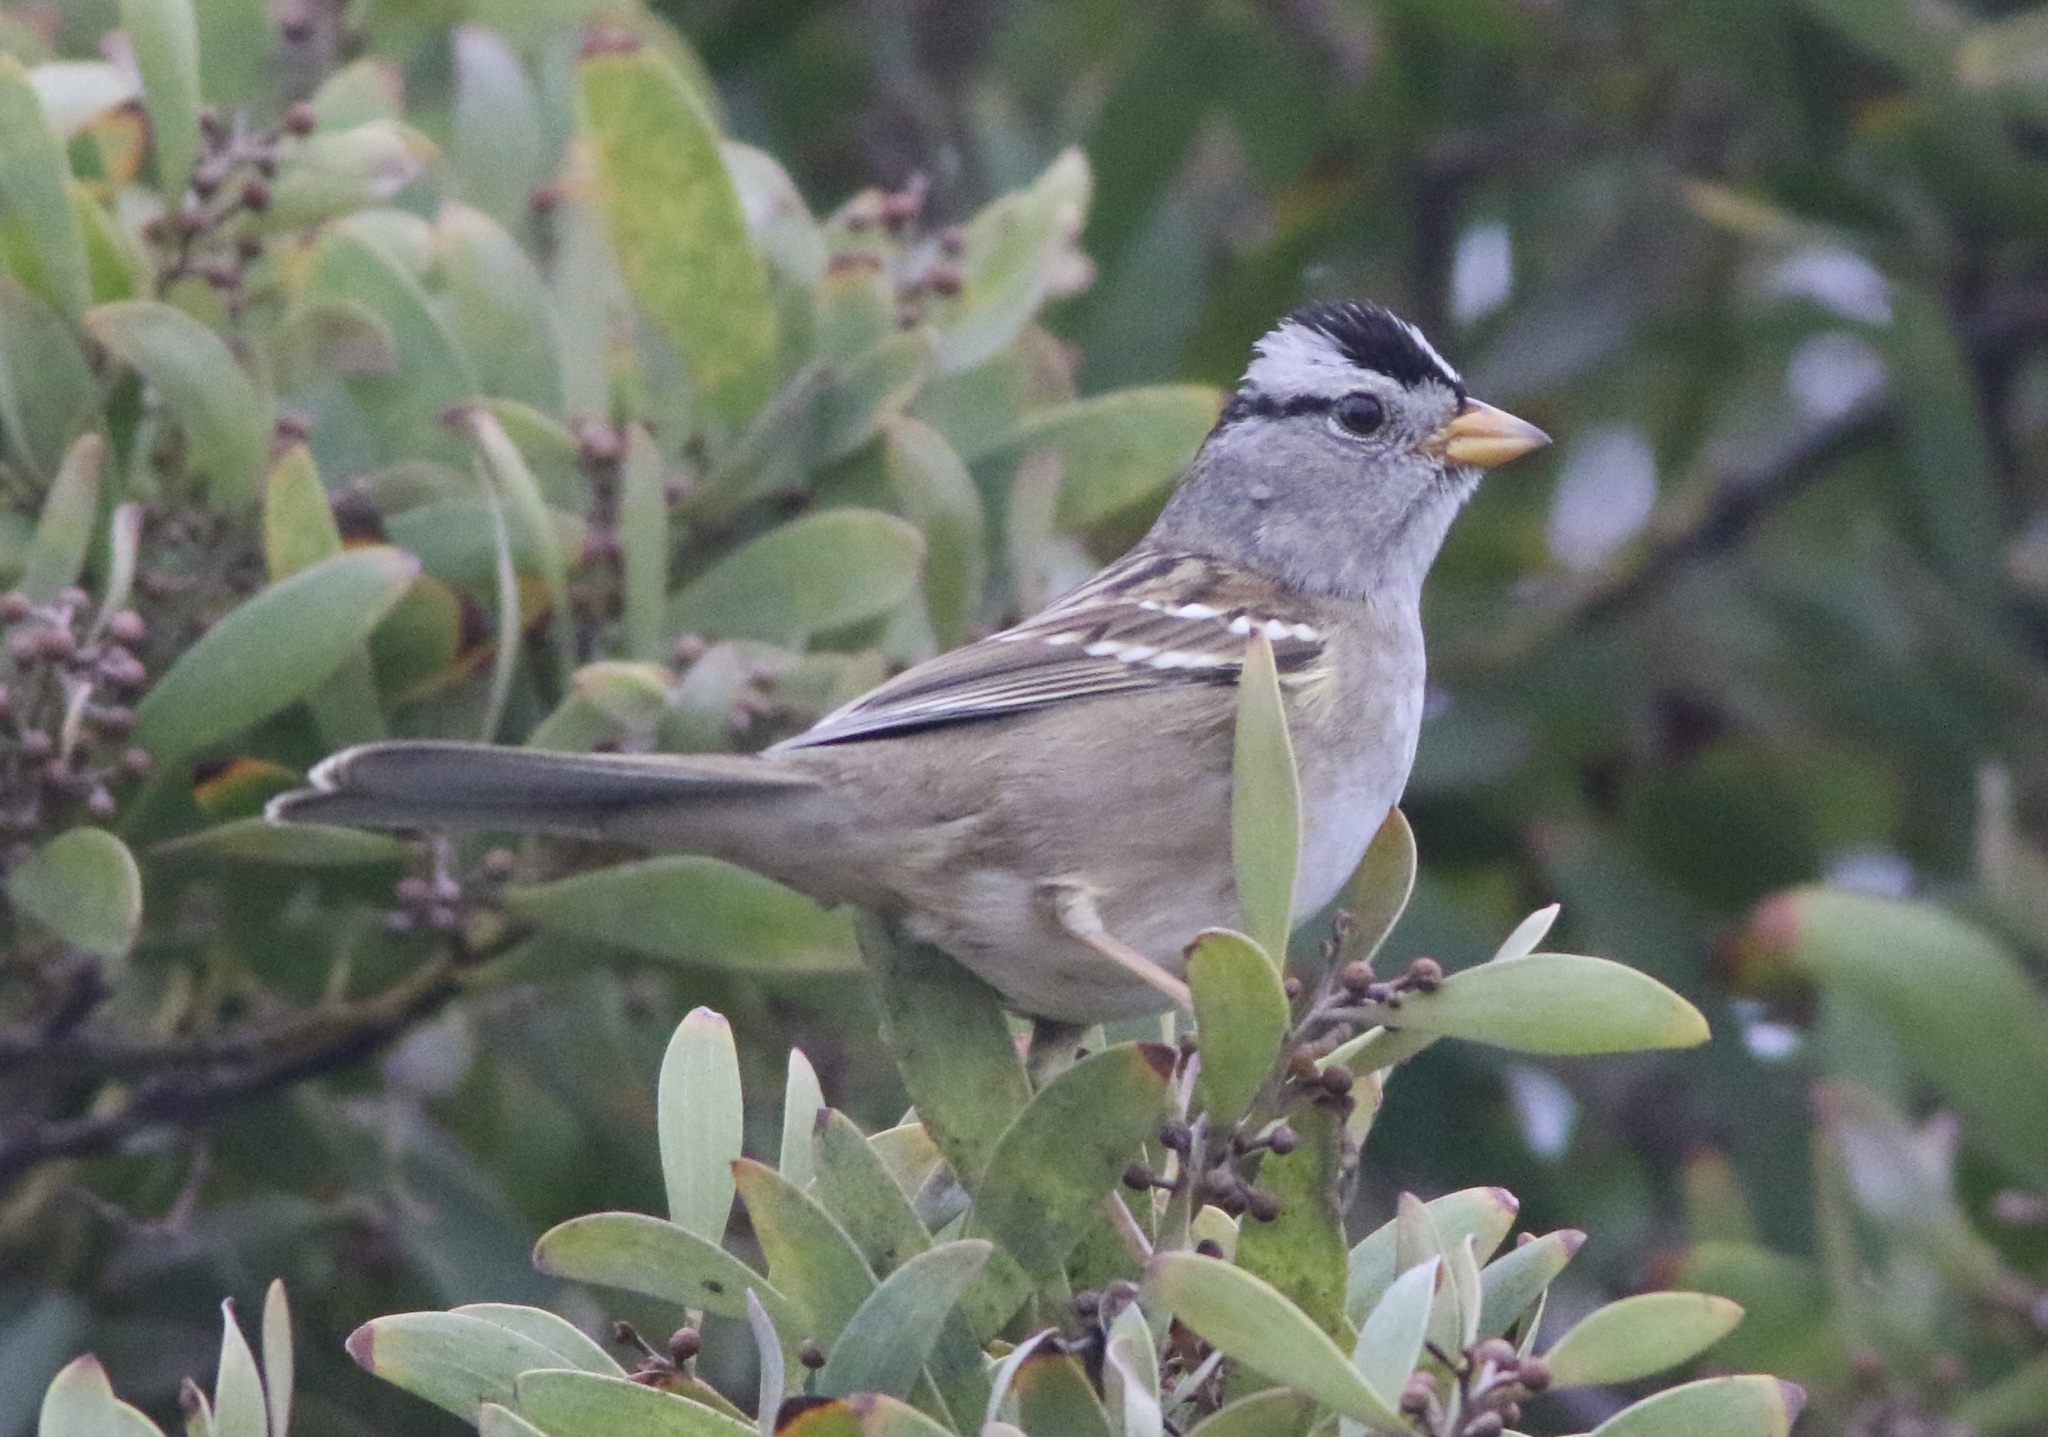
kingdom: Animalia
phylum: Chordata
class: Aves
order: Passeriformes
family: Passerellidae
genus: Zonotrichia
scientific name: Zonotrichia leucophrys
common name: White-crowned sparrow
